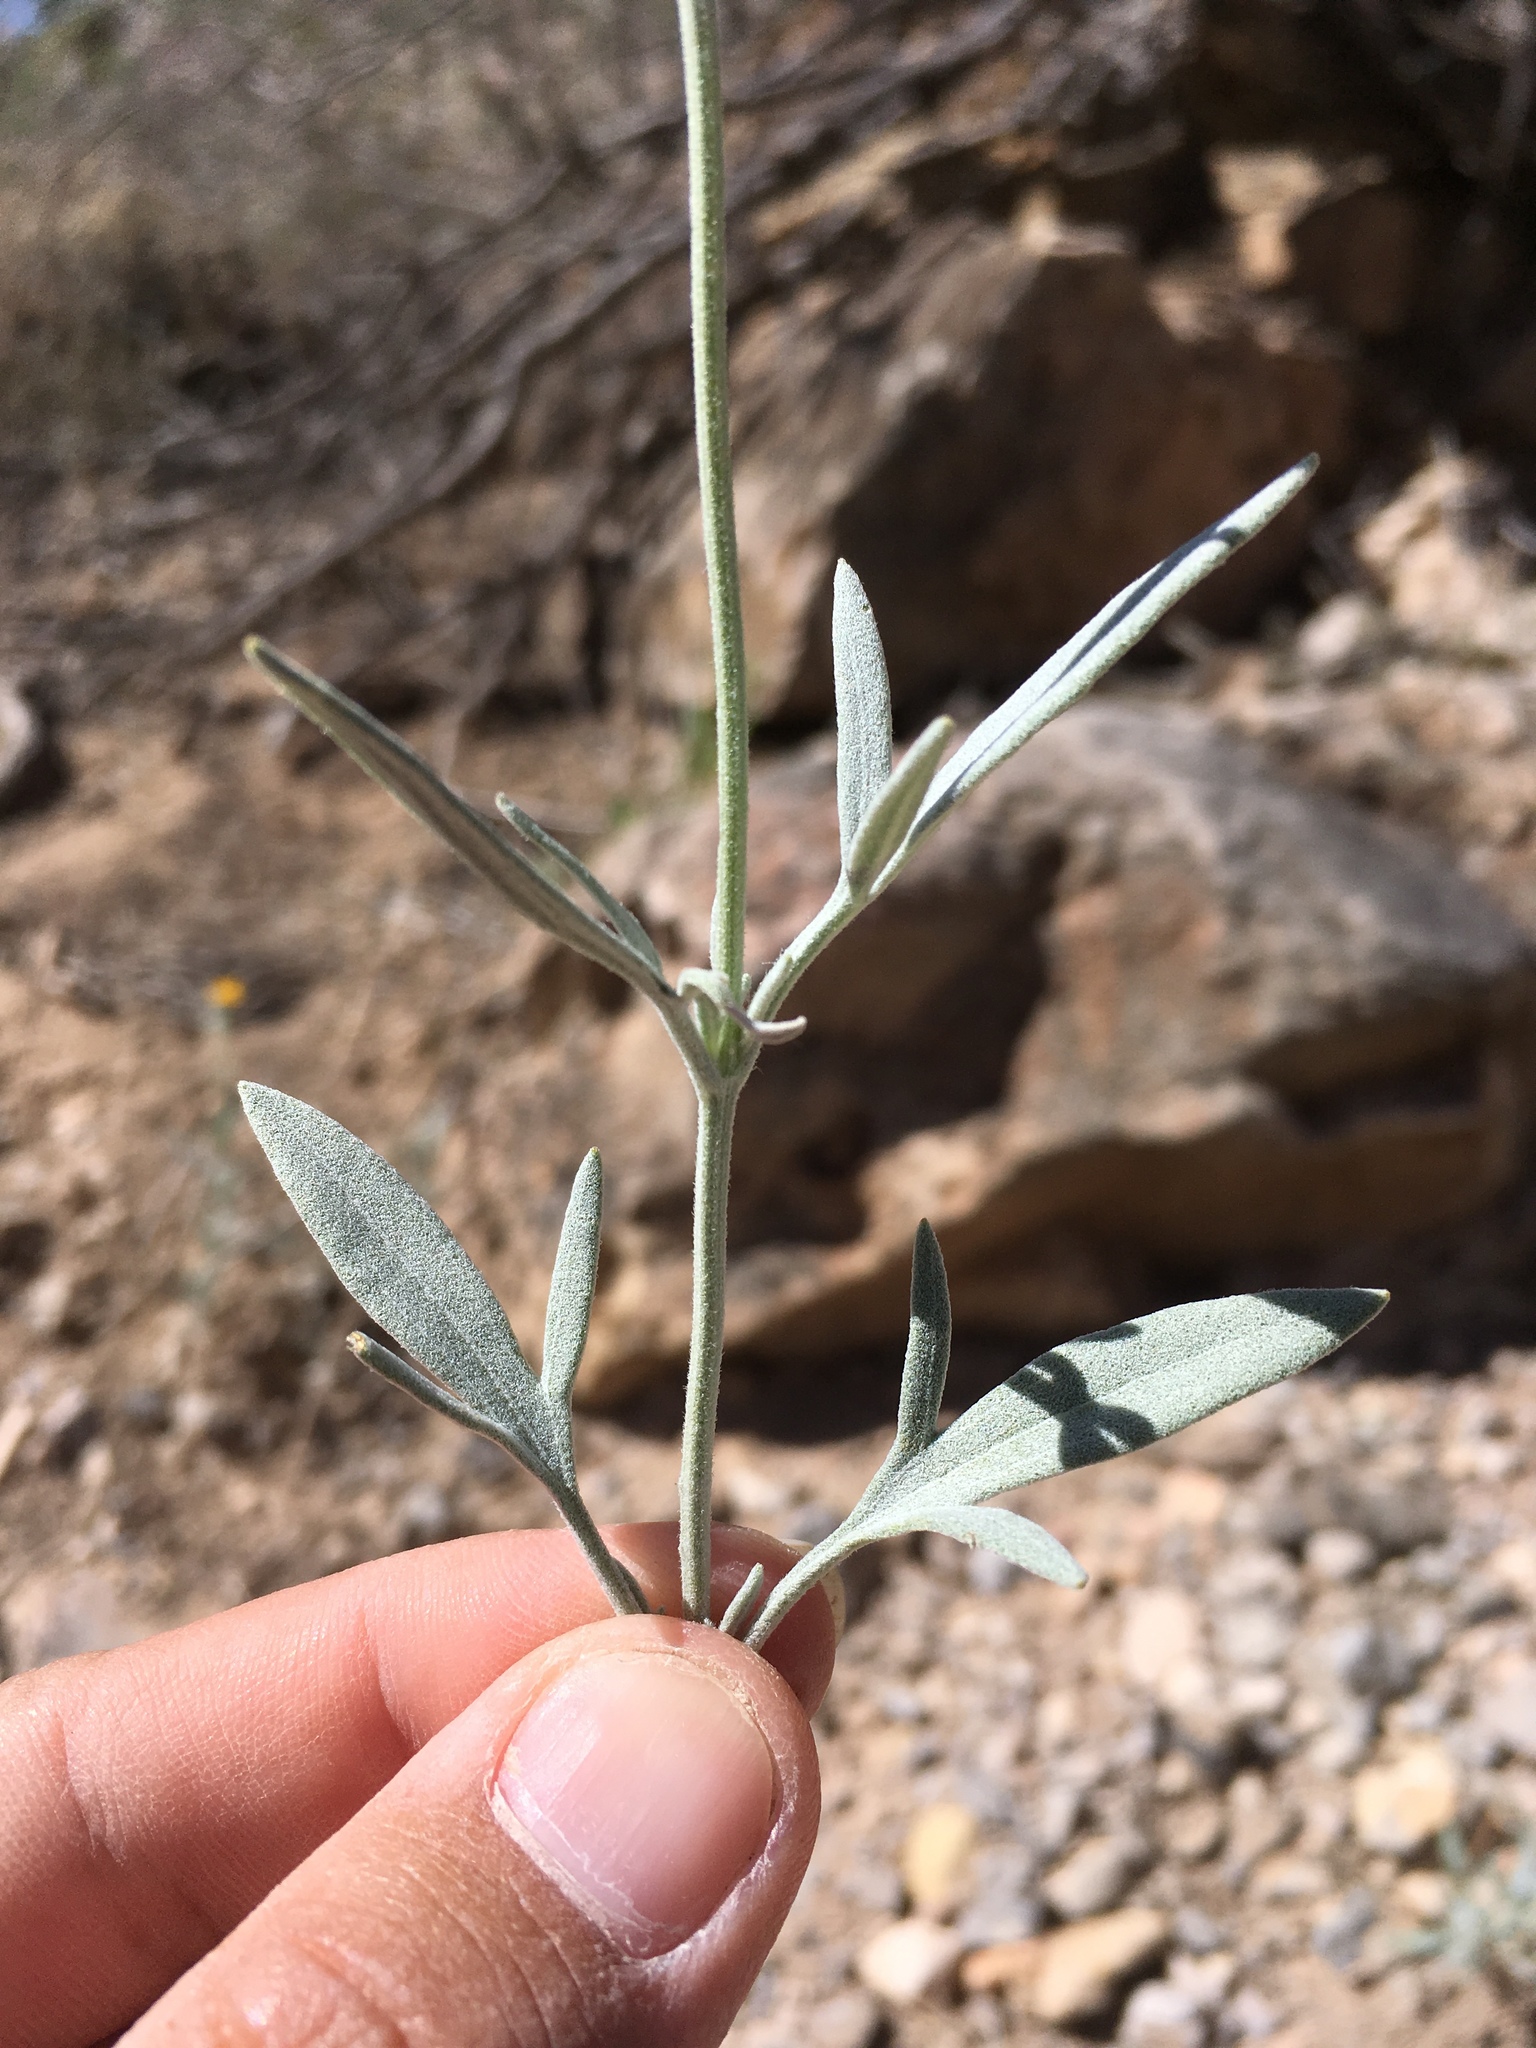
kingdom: Plantae
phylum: Tracheophyta
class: Magnoliopsida
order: Asterales
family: Asteraceae
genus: Picradeniopsis
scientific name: Picradeniopsis absinthifolia
